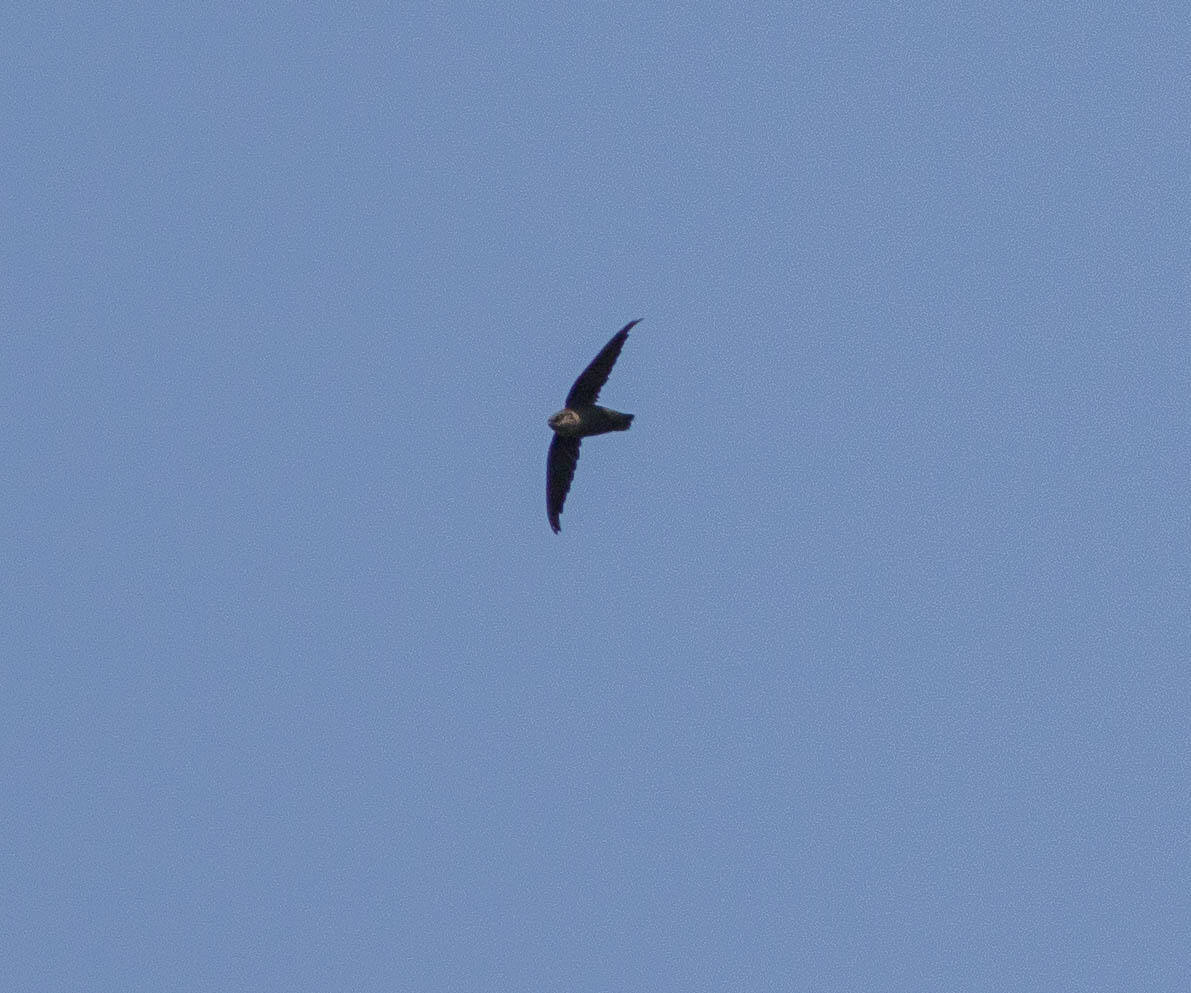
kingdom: Animalia
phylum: Chordata
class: Aves
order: Apodiformes
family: Apodidae
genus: Chaetura
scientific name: Chaetura pelagica
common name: Chimney swift
